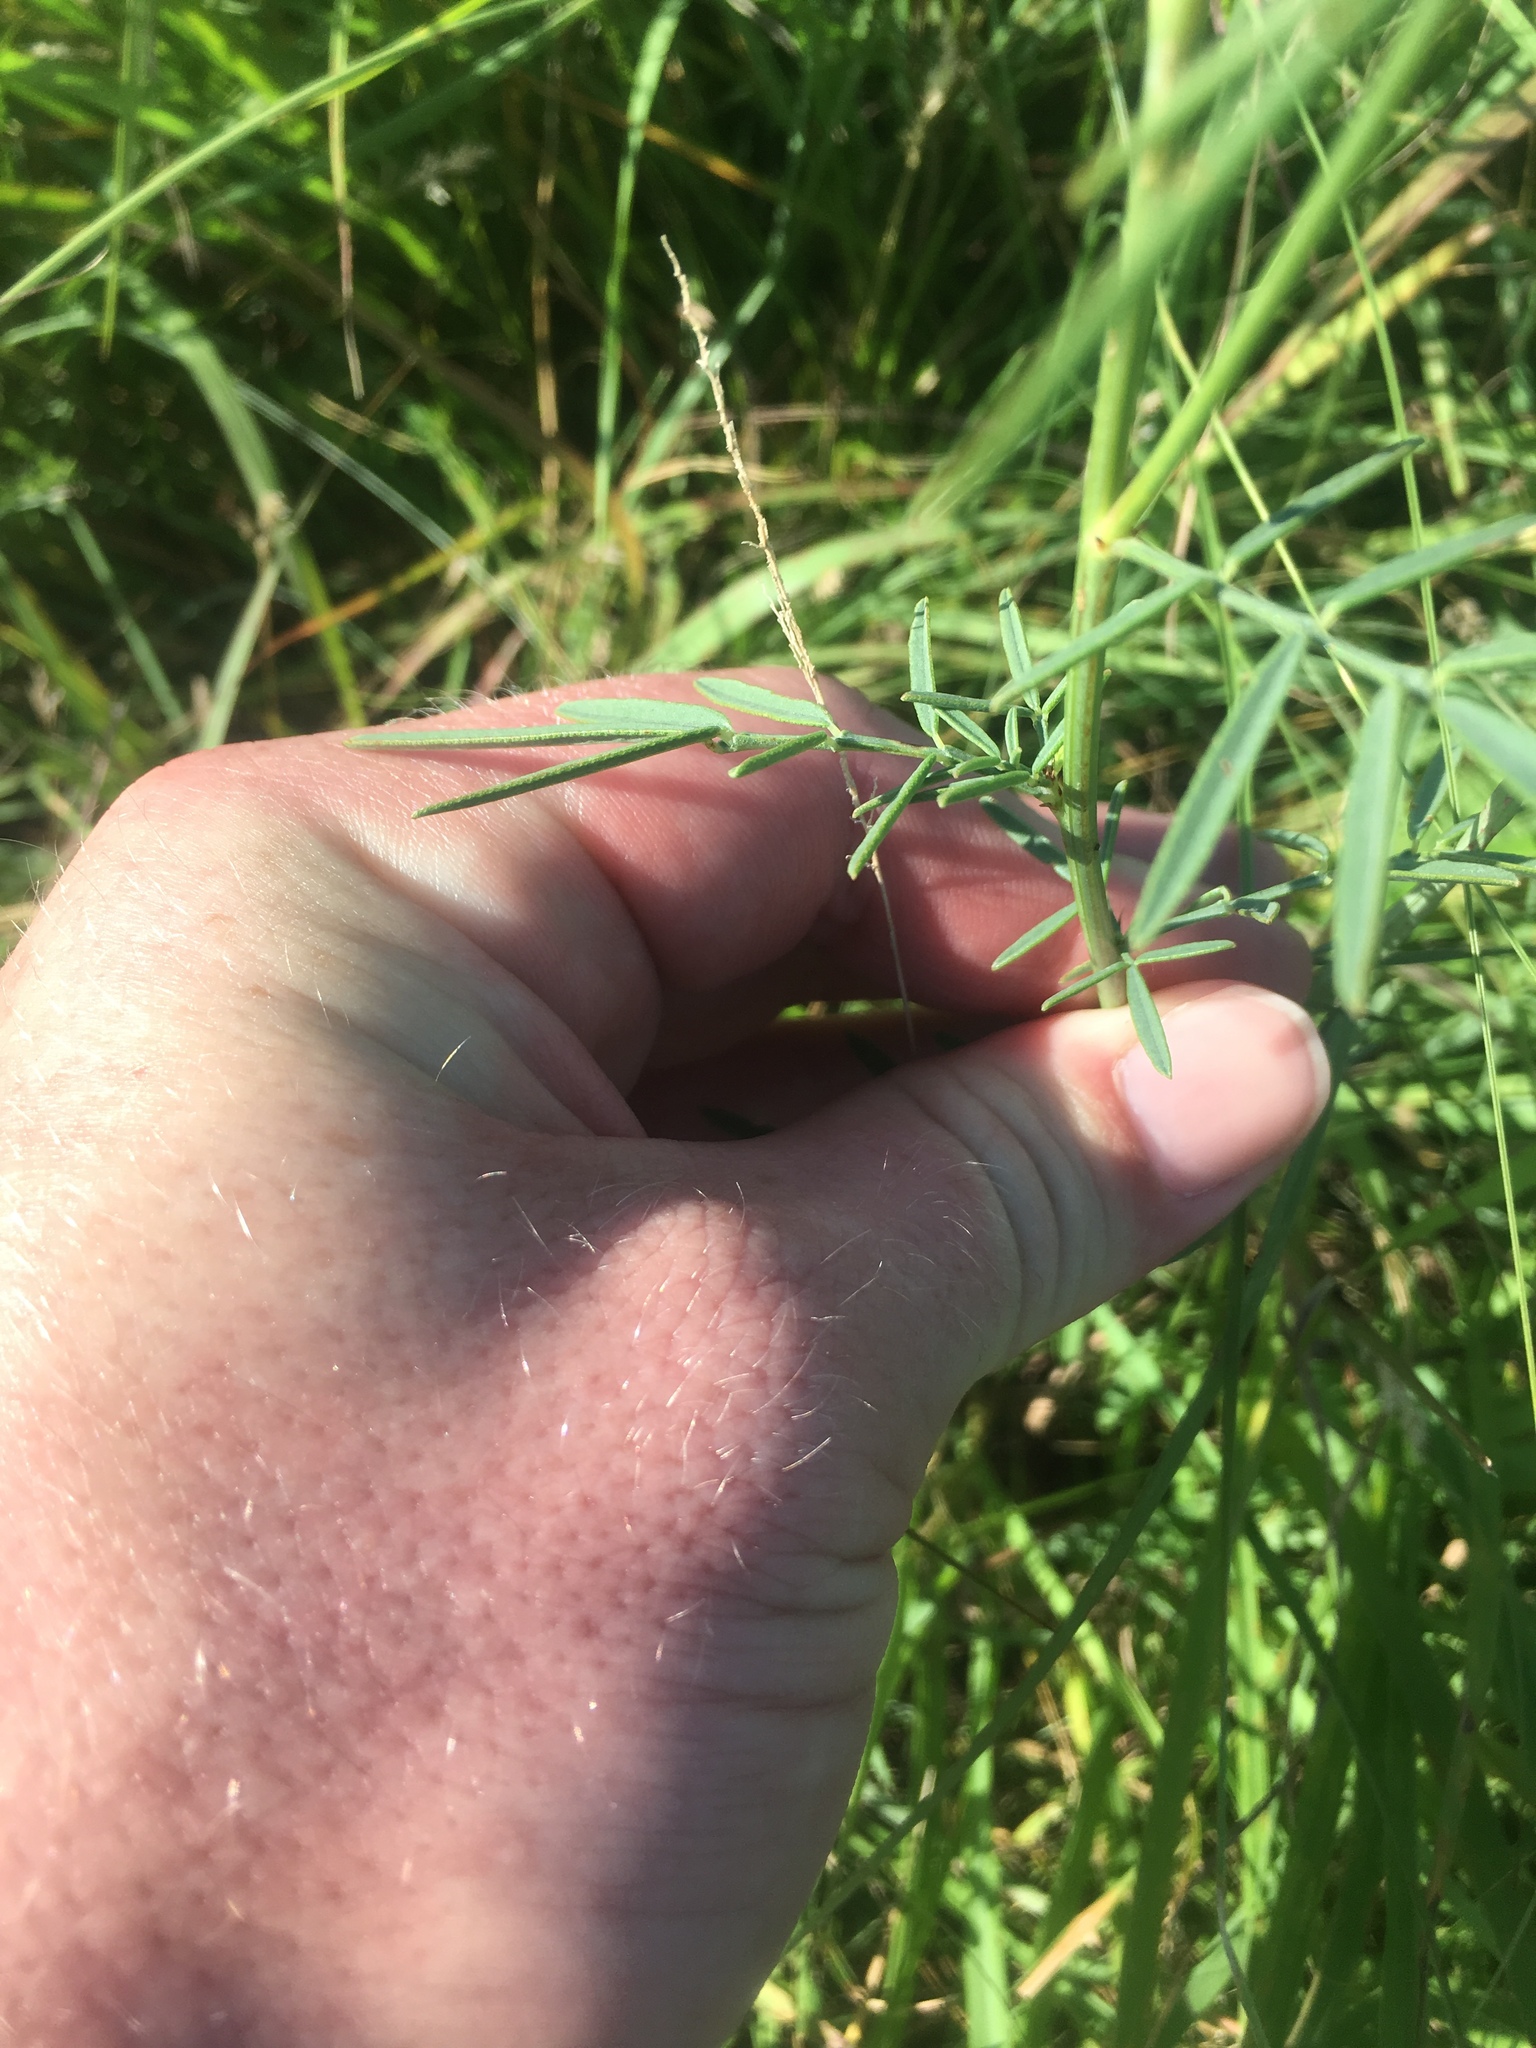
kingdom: Plantae
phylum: Tracheophyta
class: Magnoliopsida
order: Fabales
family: Fabaceae
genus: Dalea
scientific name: Dalea candida
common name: White prairie-clover
